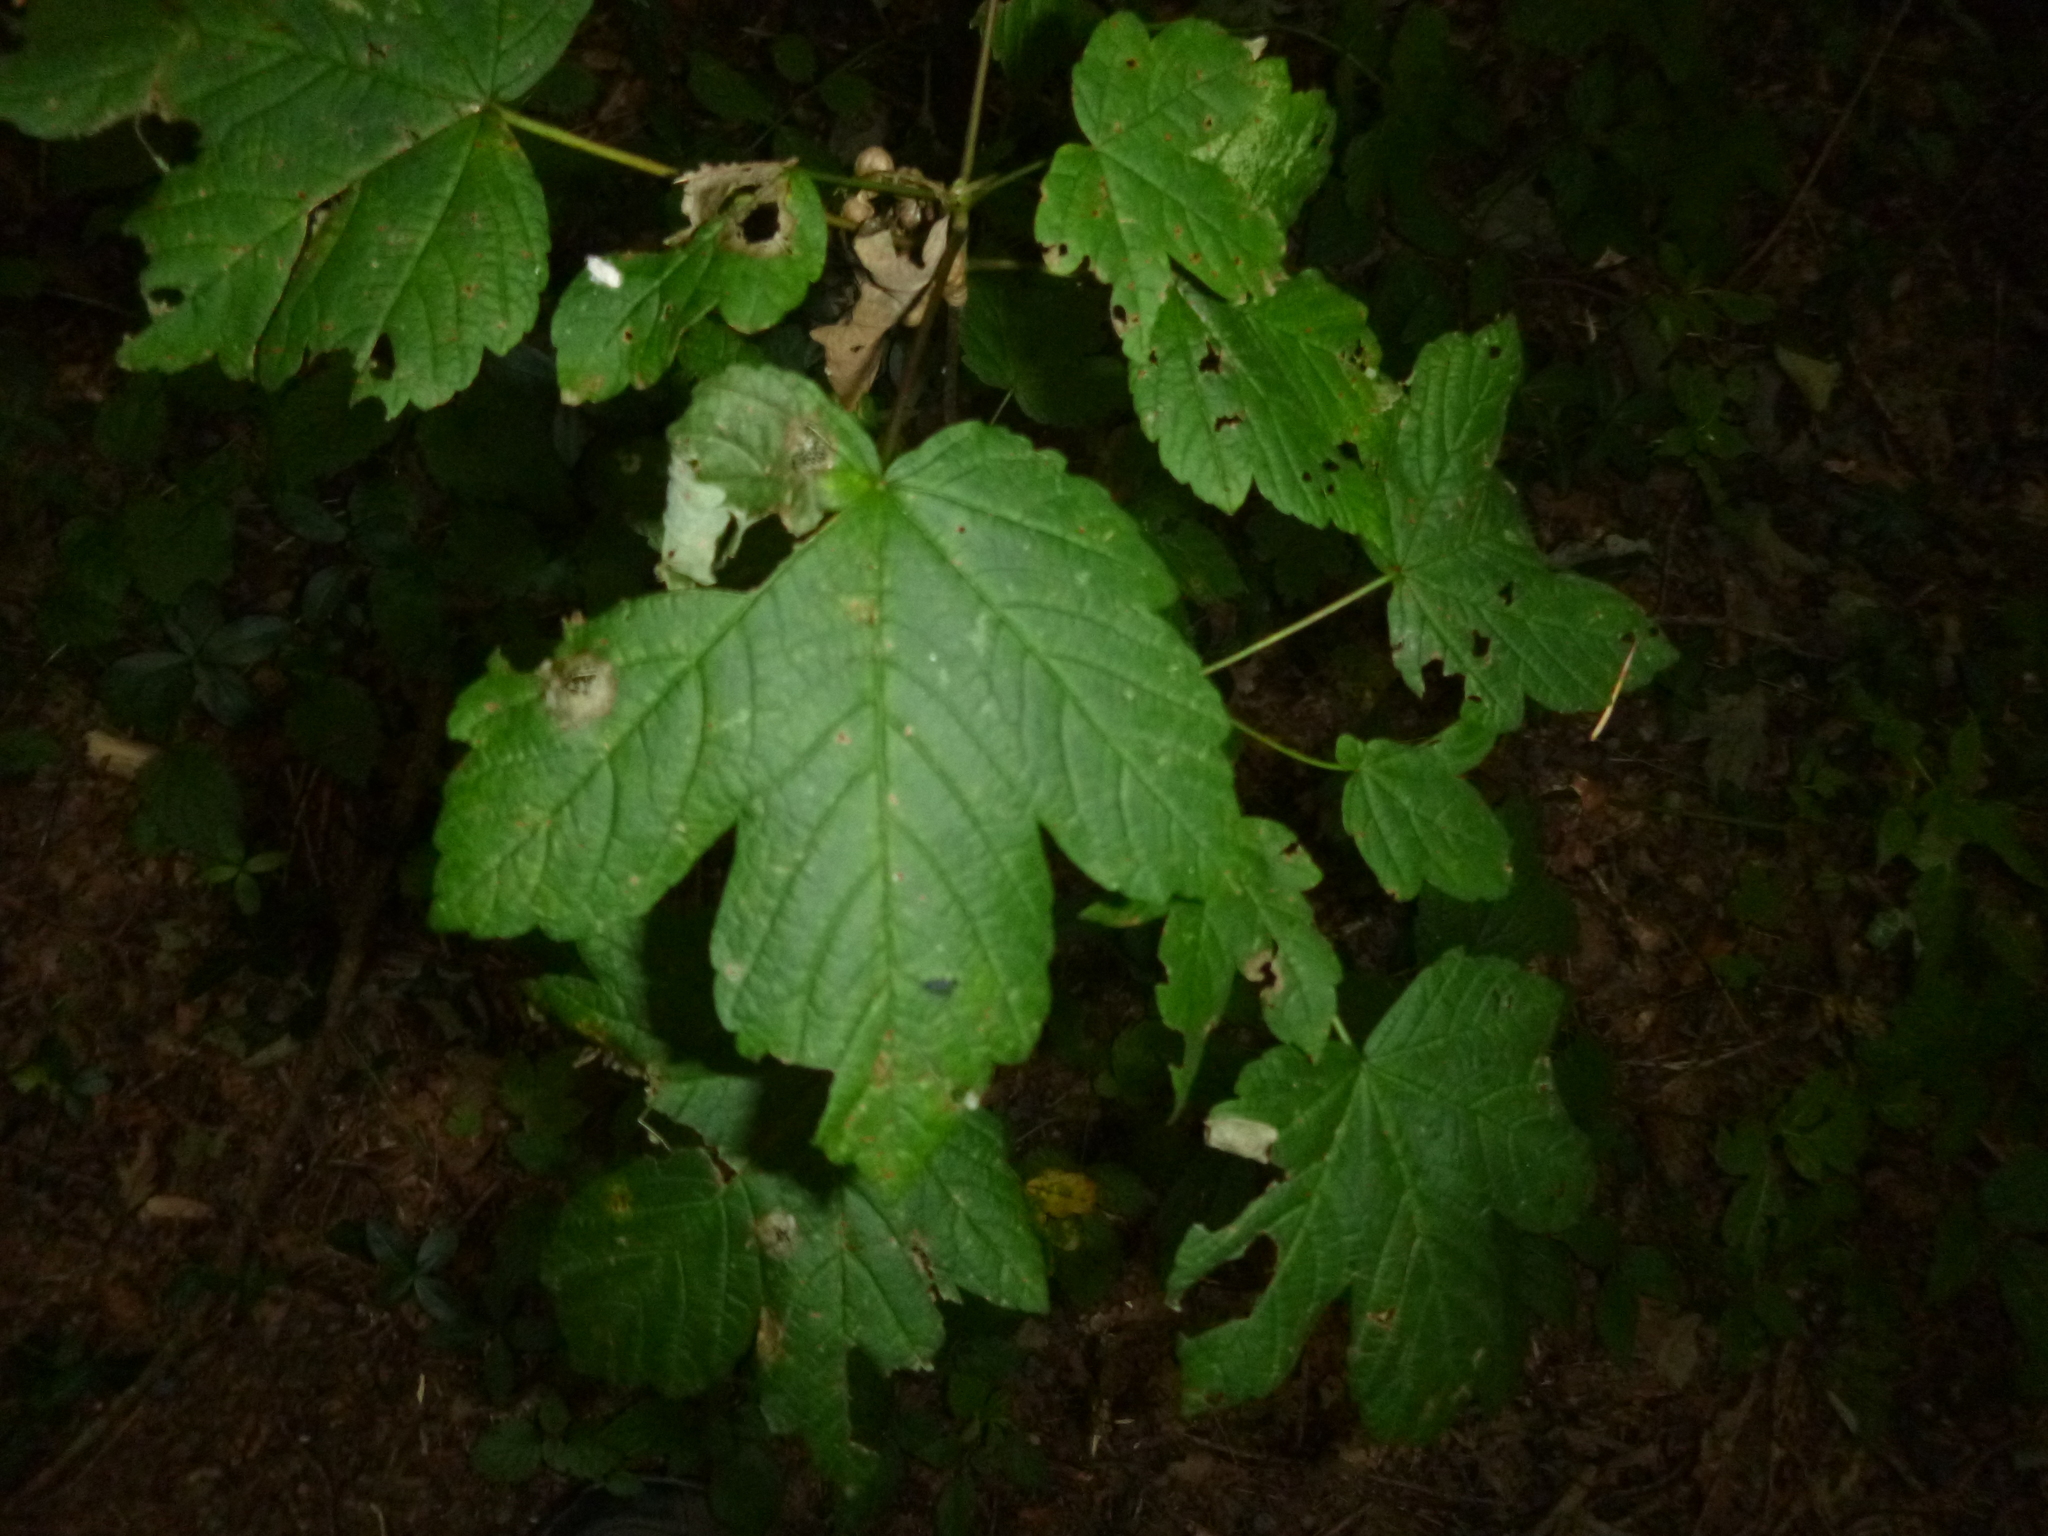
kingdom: Plantae
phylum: Tracheophyta
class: Magnoliopsida
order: Sapindales
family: Sapindaceae
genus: Acer
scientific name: Acer pseudoplatanus
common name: Sycamore
